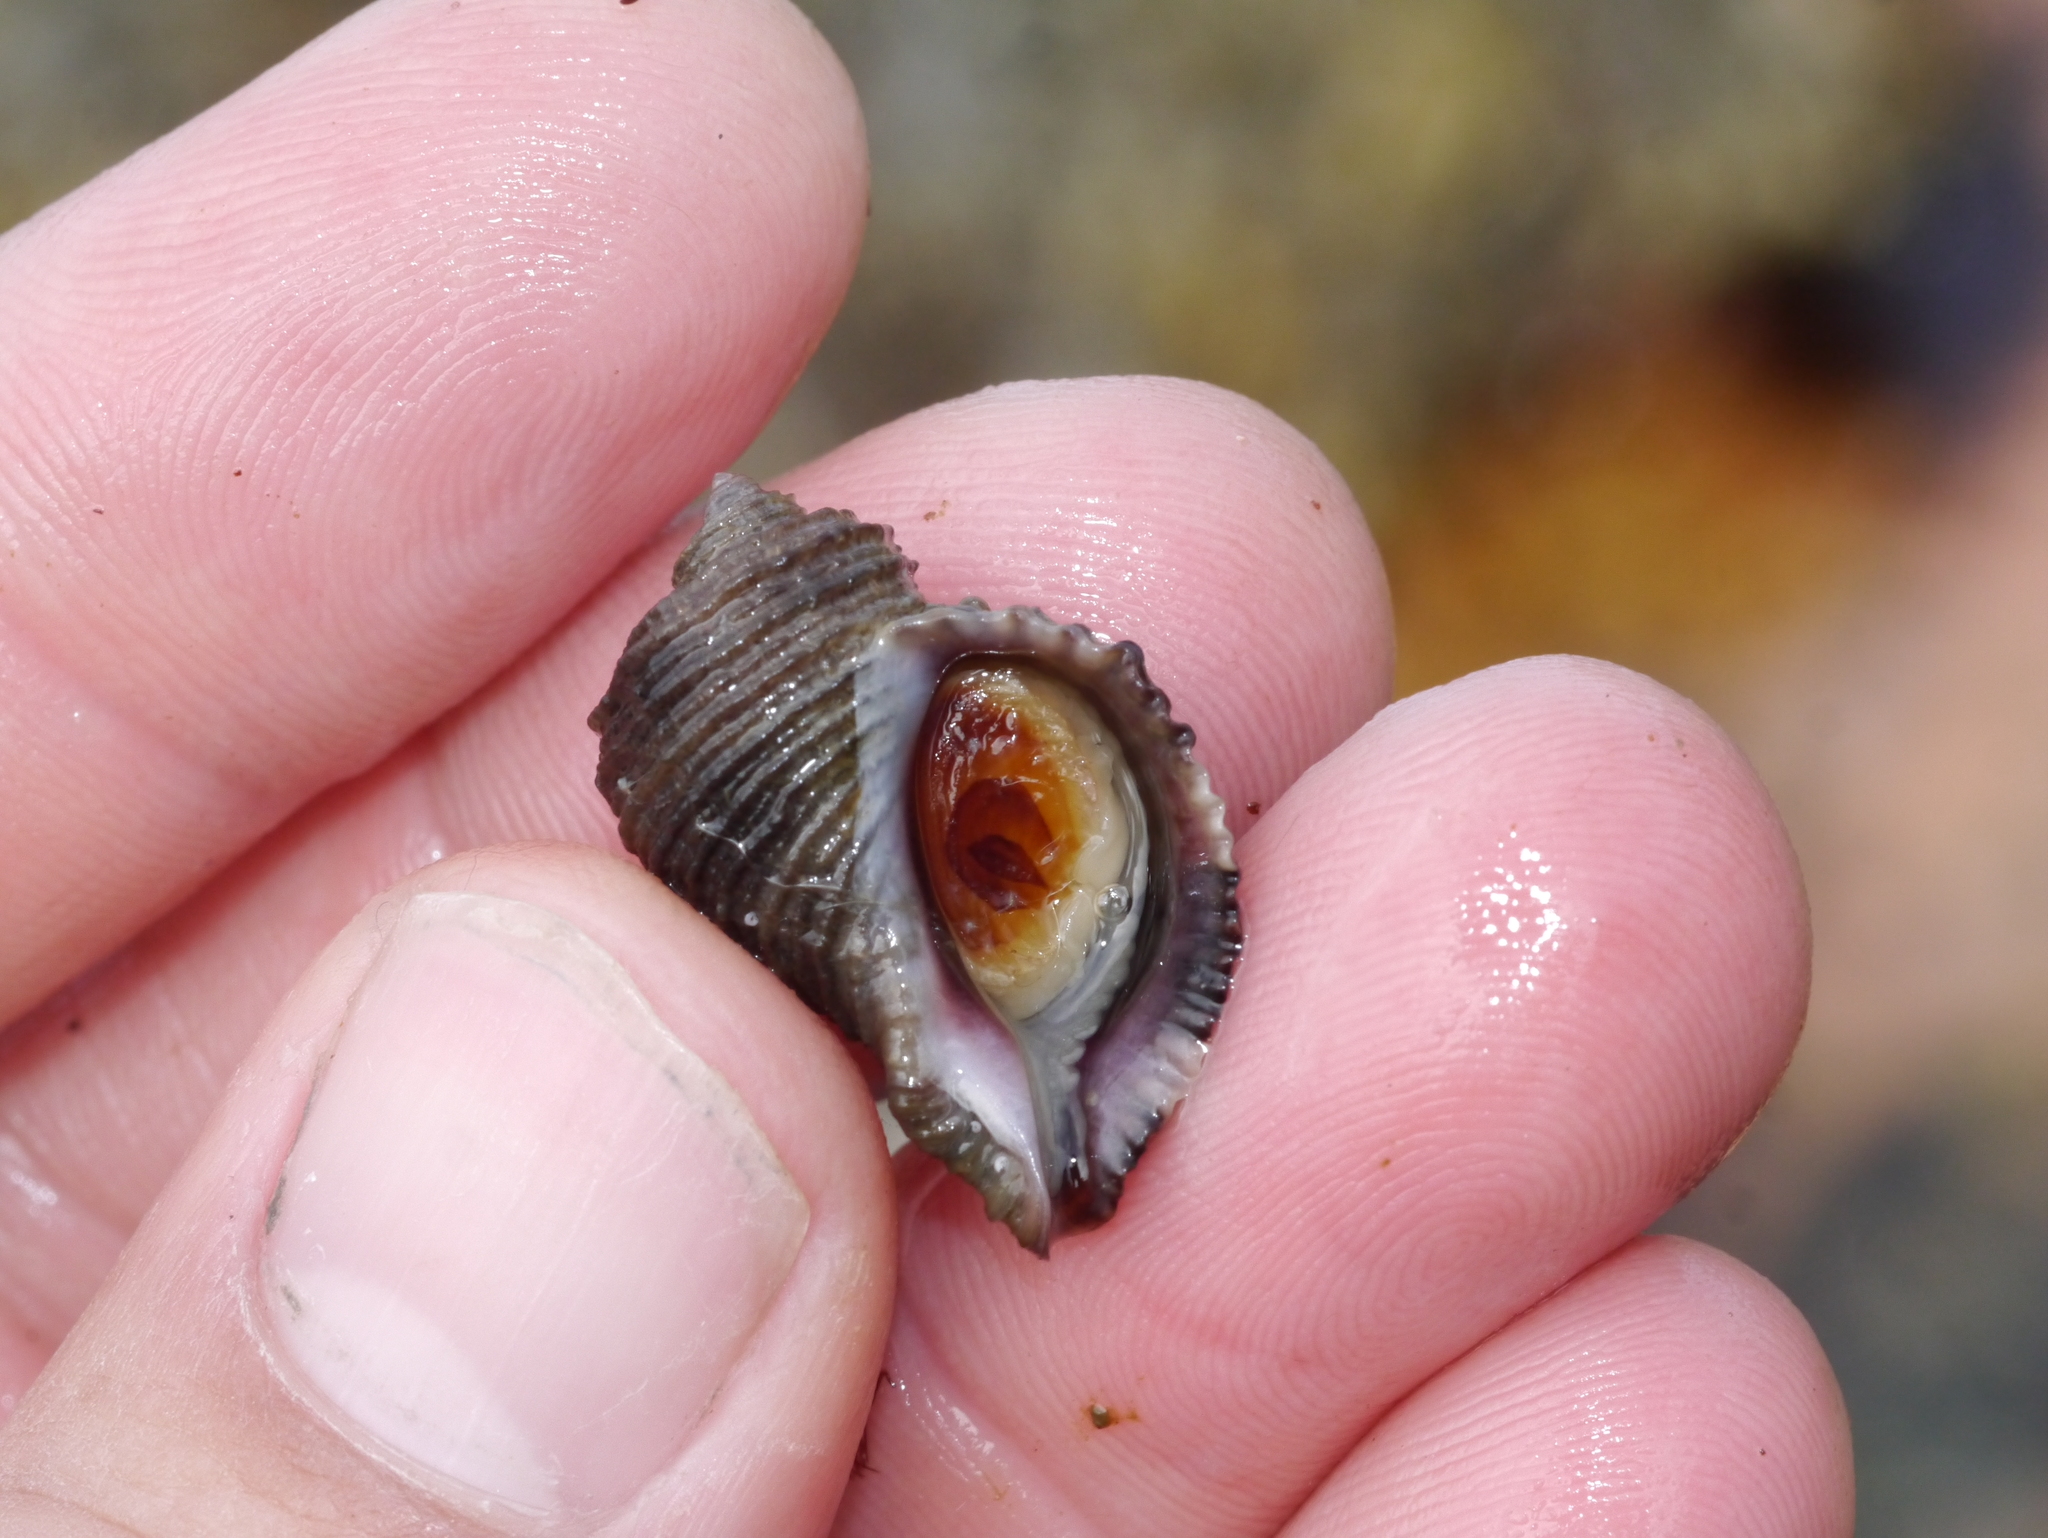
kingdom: Animalia
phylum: Mollusca
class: Gastropoda
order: Neogastropoda
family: Muricidae
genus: Nucella
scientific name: Nucella lima
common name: Rough purple
